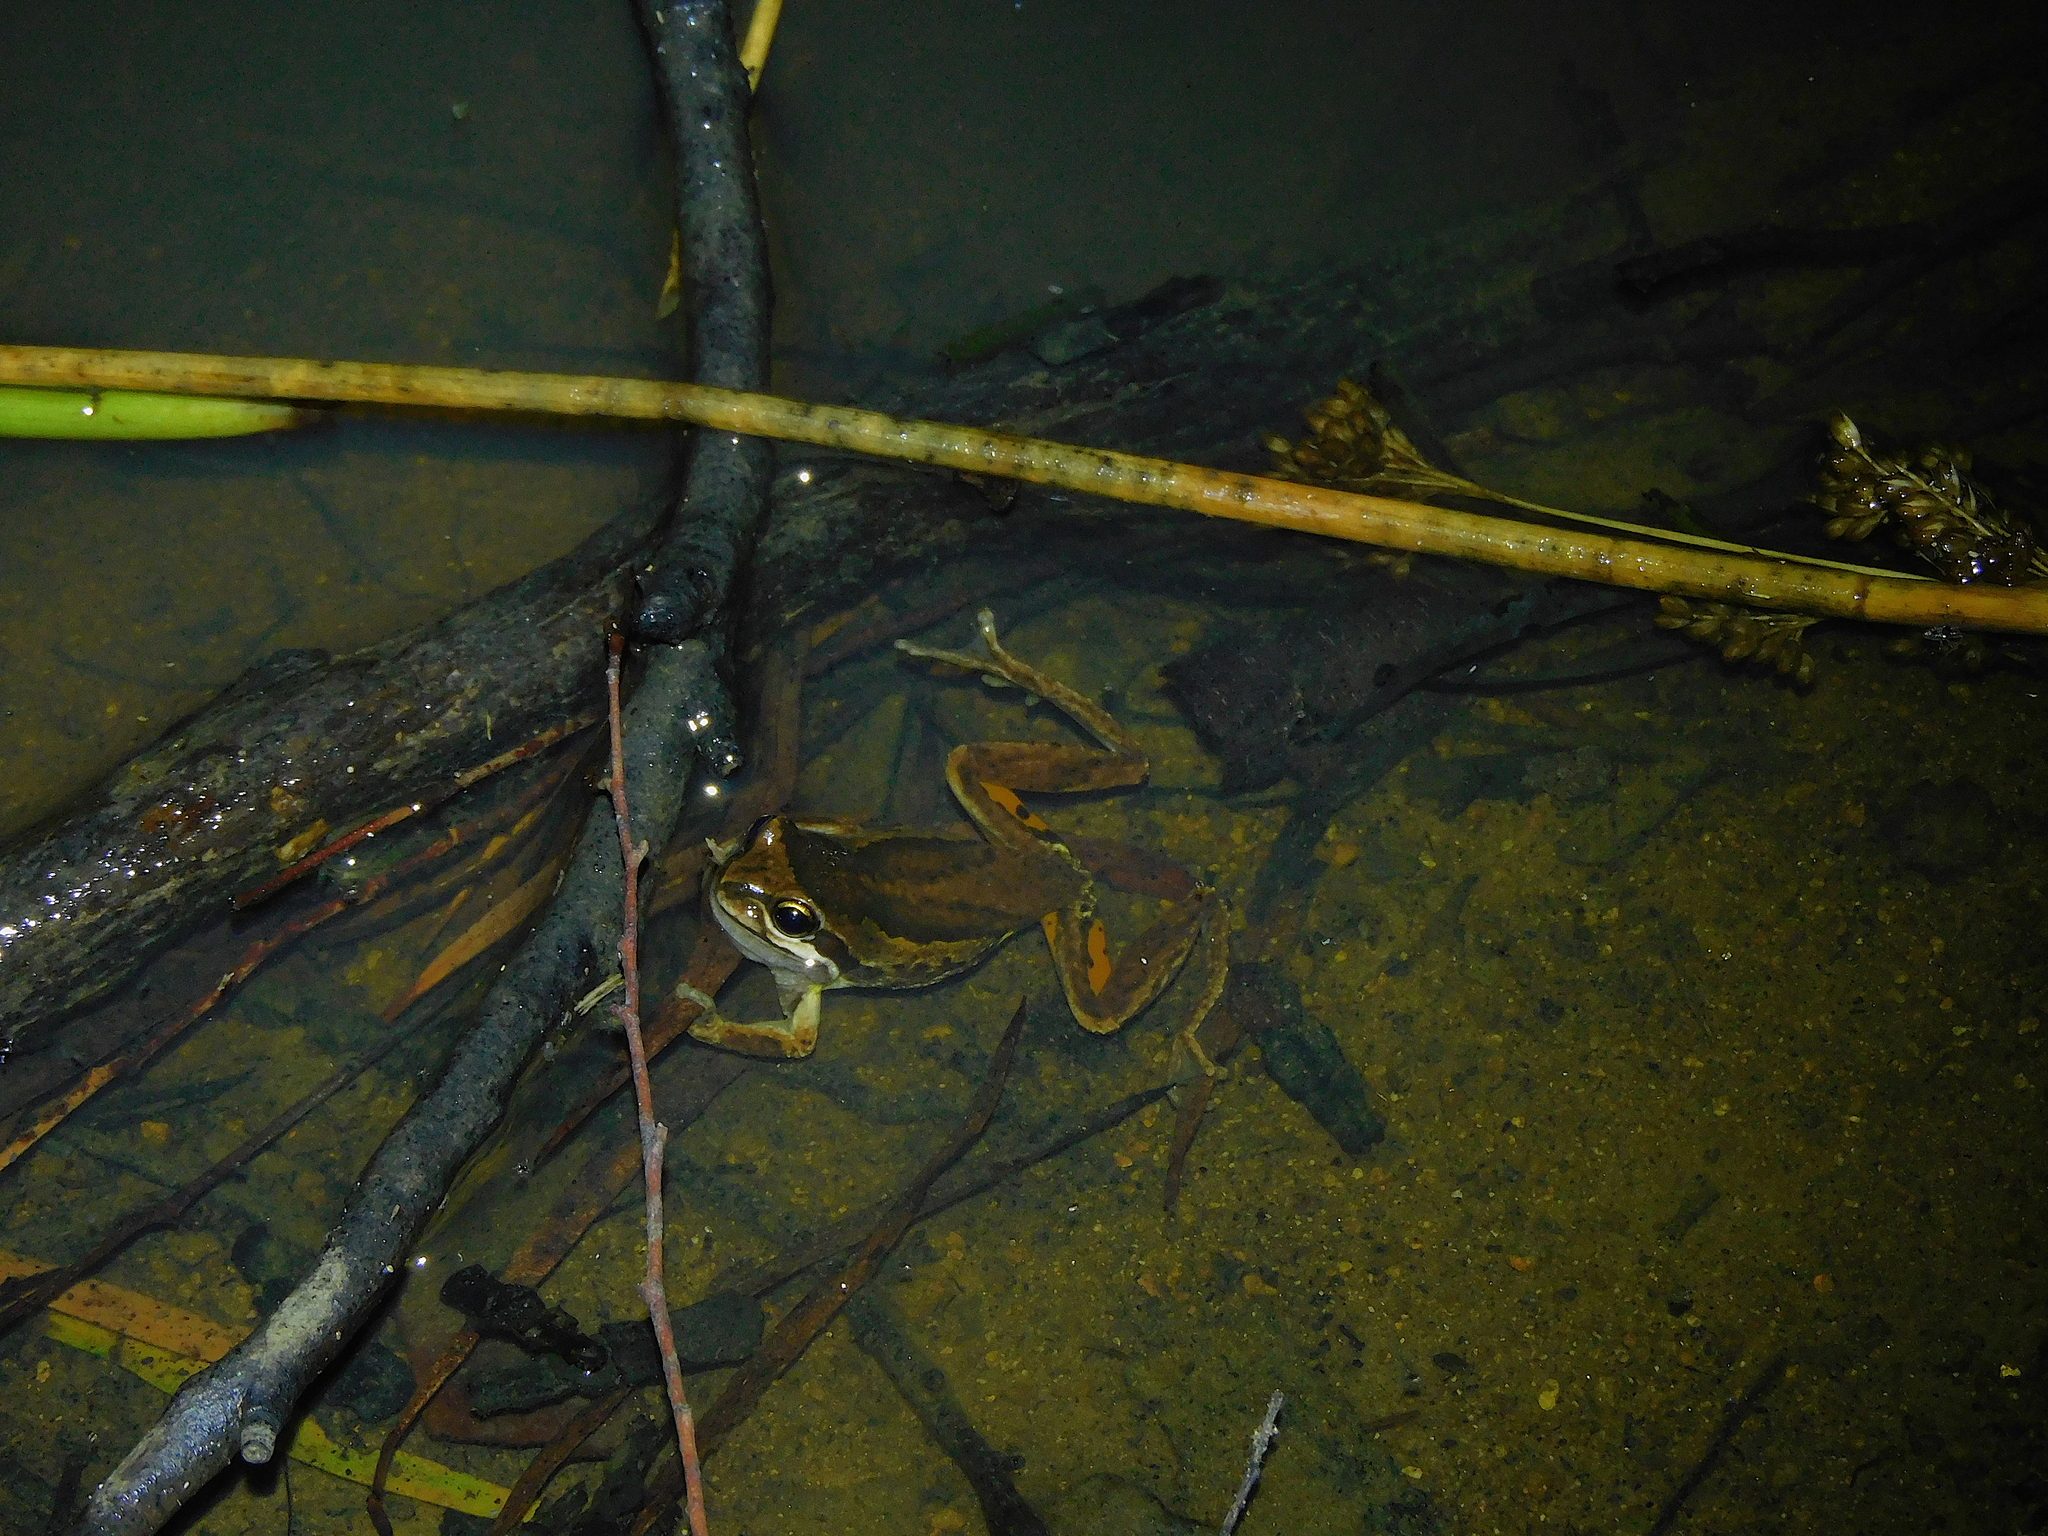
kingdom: Animalia
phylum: Chordata
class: Amphibia
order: Anura
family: Pelodryadidae
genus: Litoria
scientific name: Litoria ewingii
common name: Southern brown tree frog
